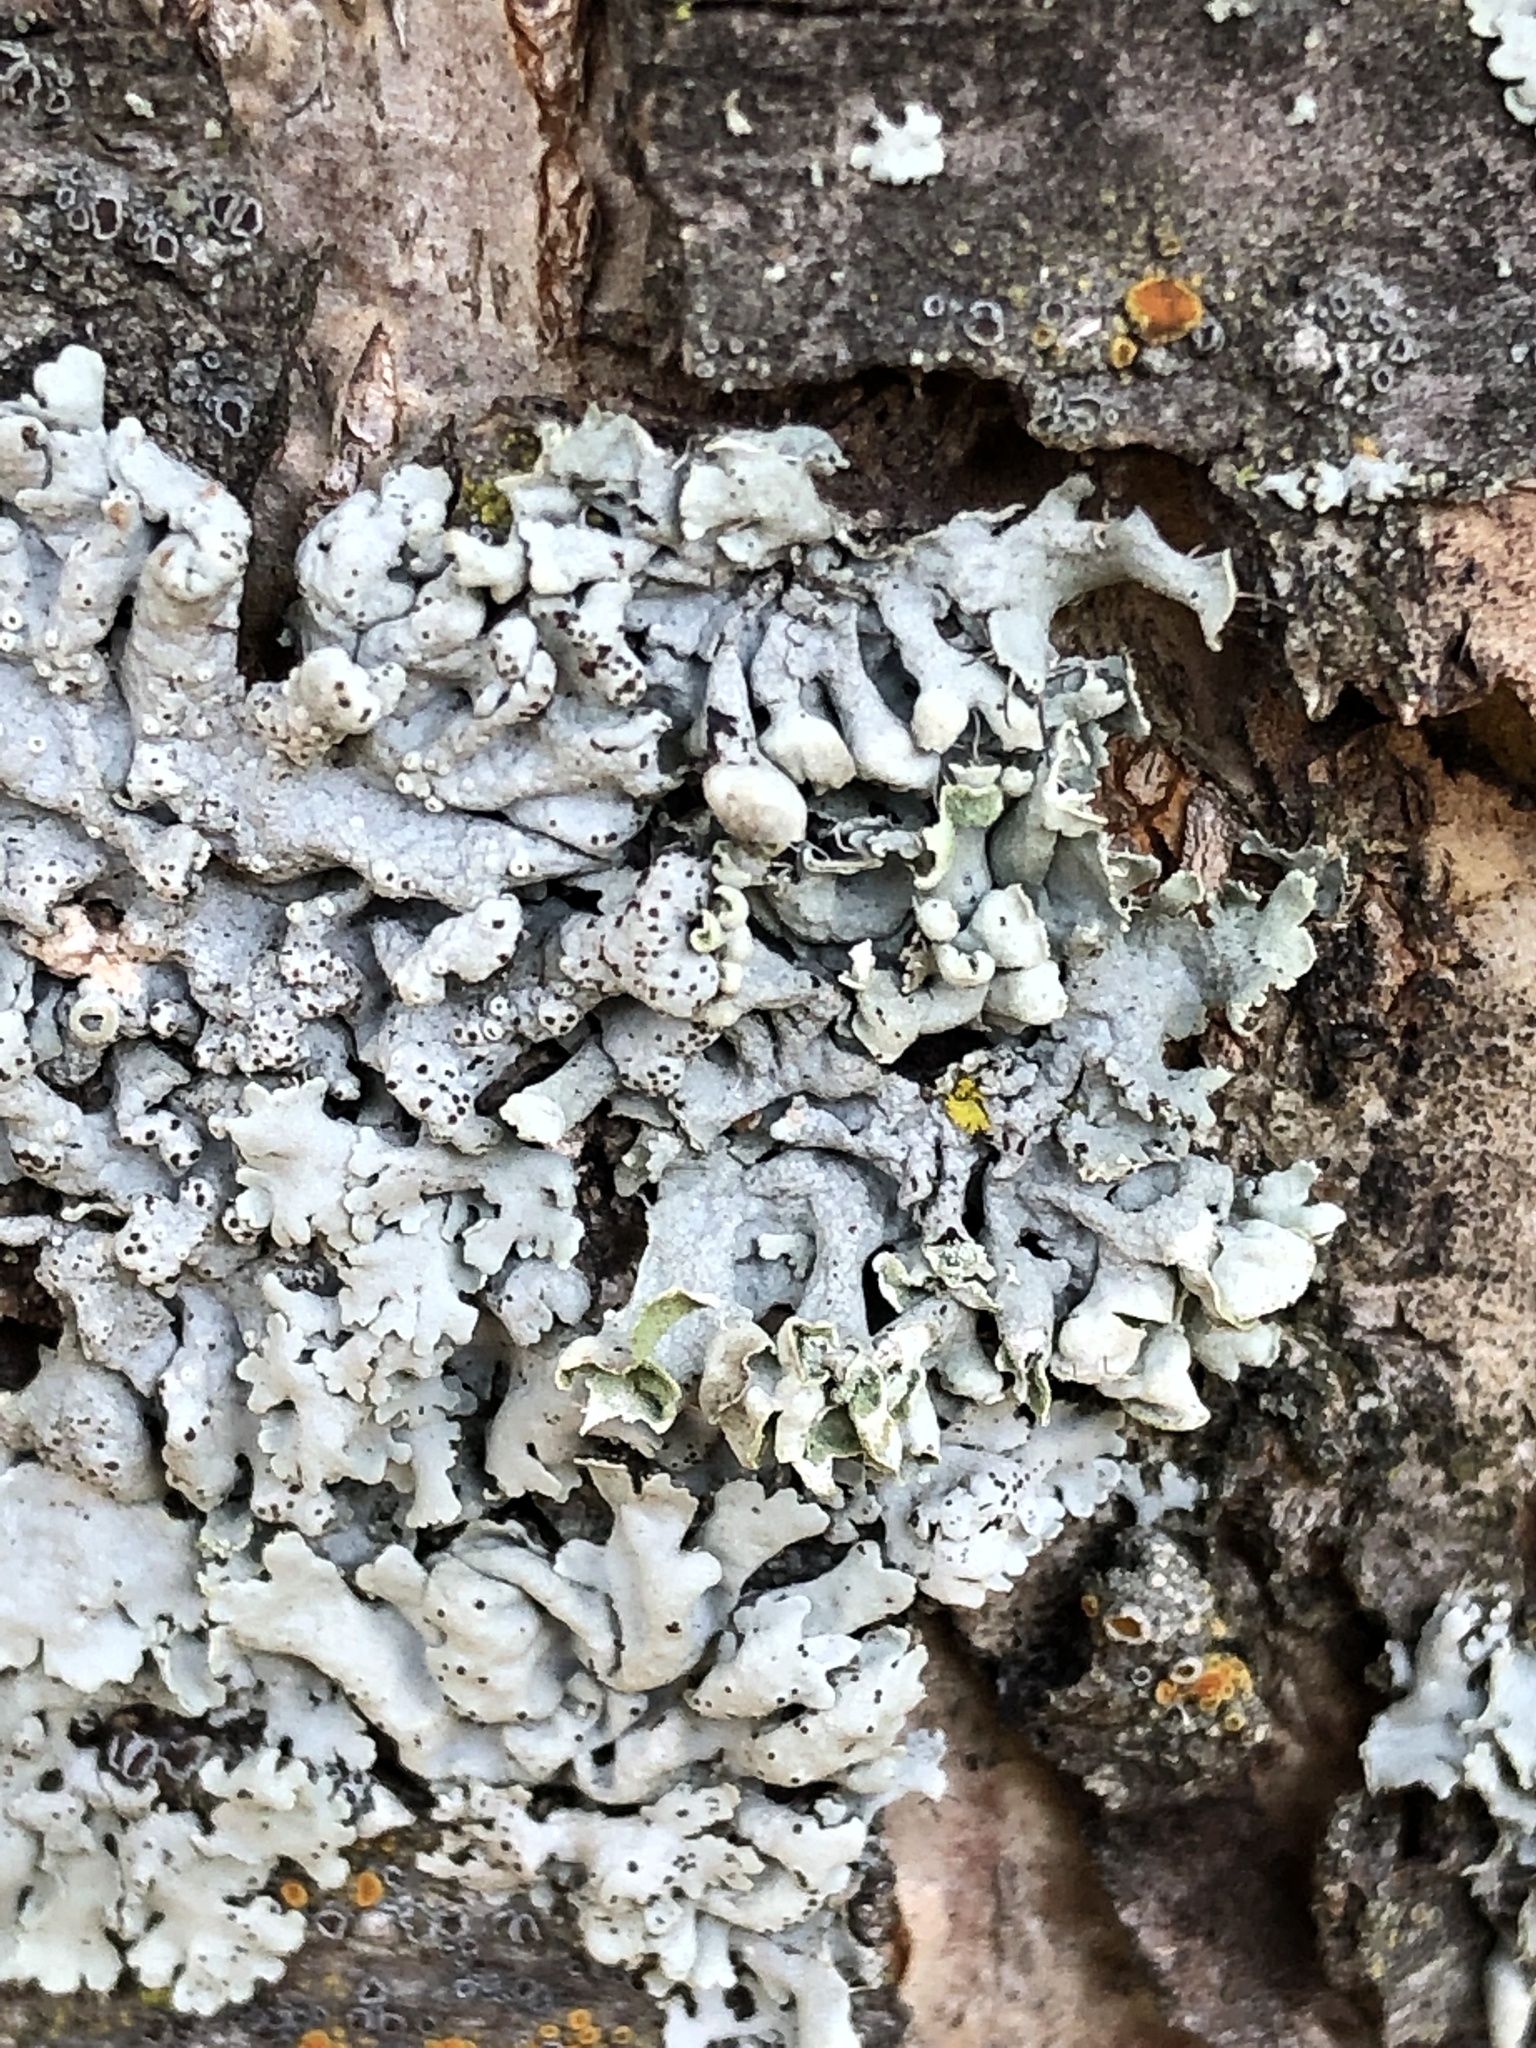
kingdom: Fungi
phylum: Ascomycota
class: Lecanoromycetes
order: Lecanorales
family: Parmeliaceae
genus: Hypogymnia
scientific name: Hypogymnia physodes
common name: Dark crottle
